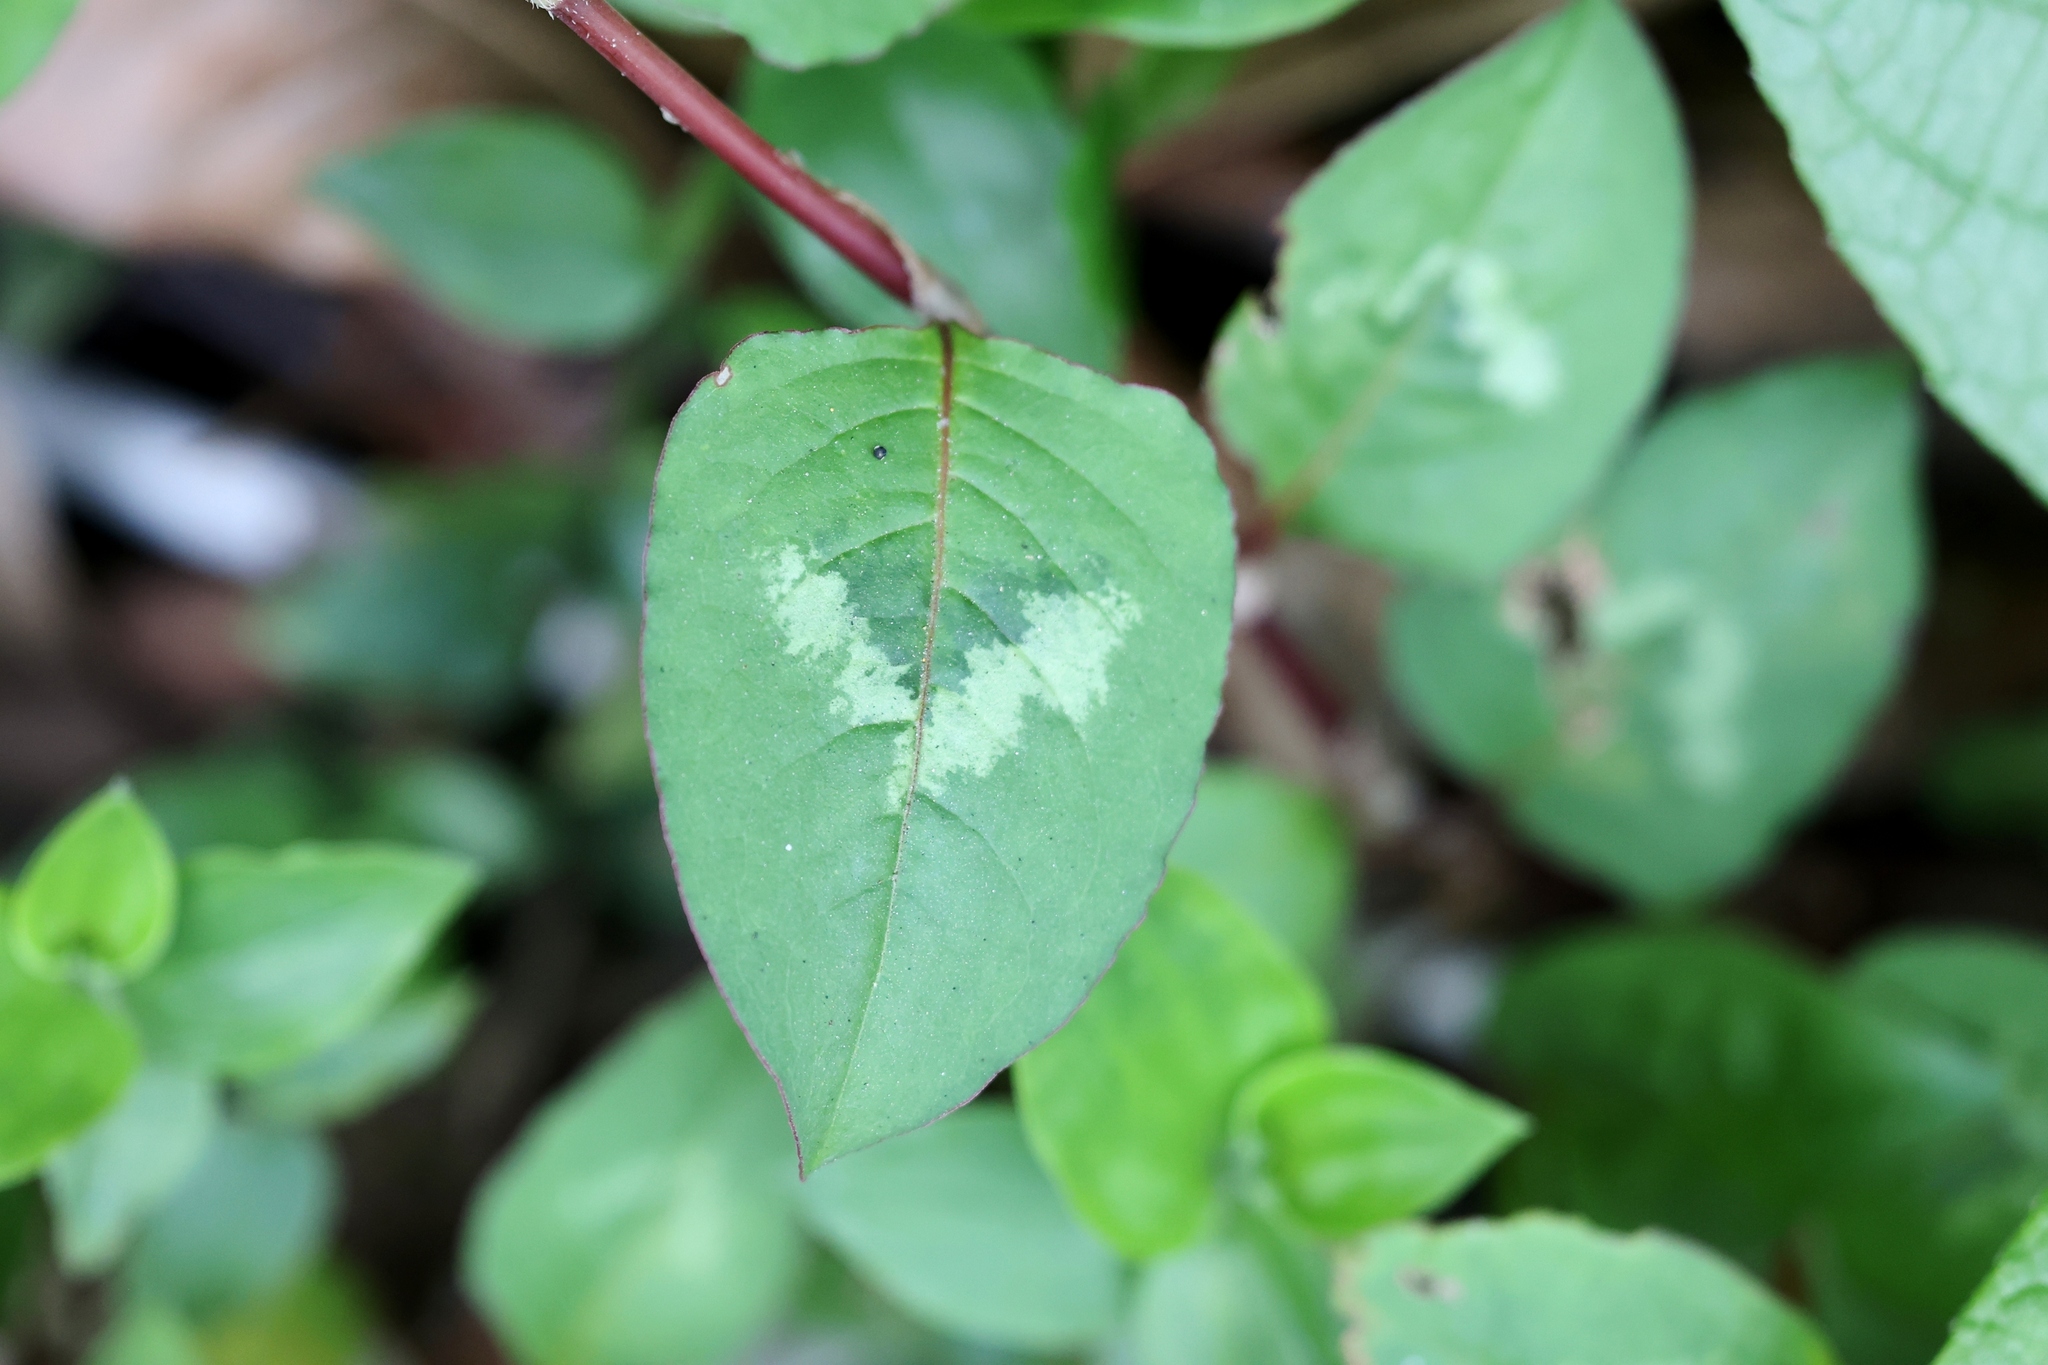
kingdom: Plantae
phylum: Tracheophyta
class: Magnoliopsida
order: Caryophyllales
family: Polygonaceae
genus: Persicaria
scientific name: Persicaria chinensis
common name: Chinese knotweed
